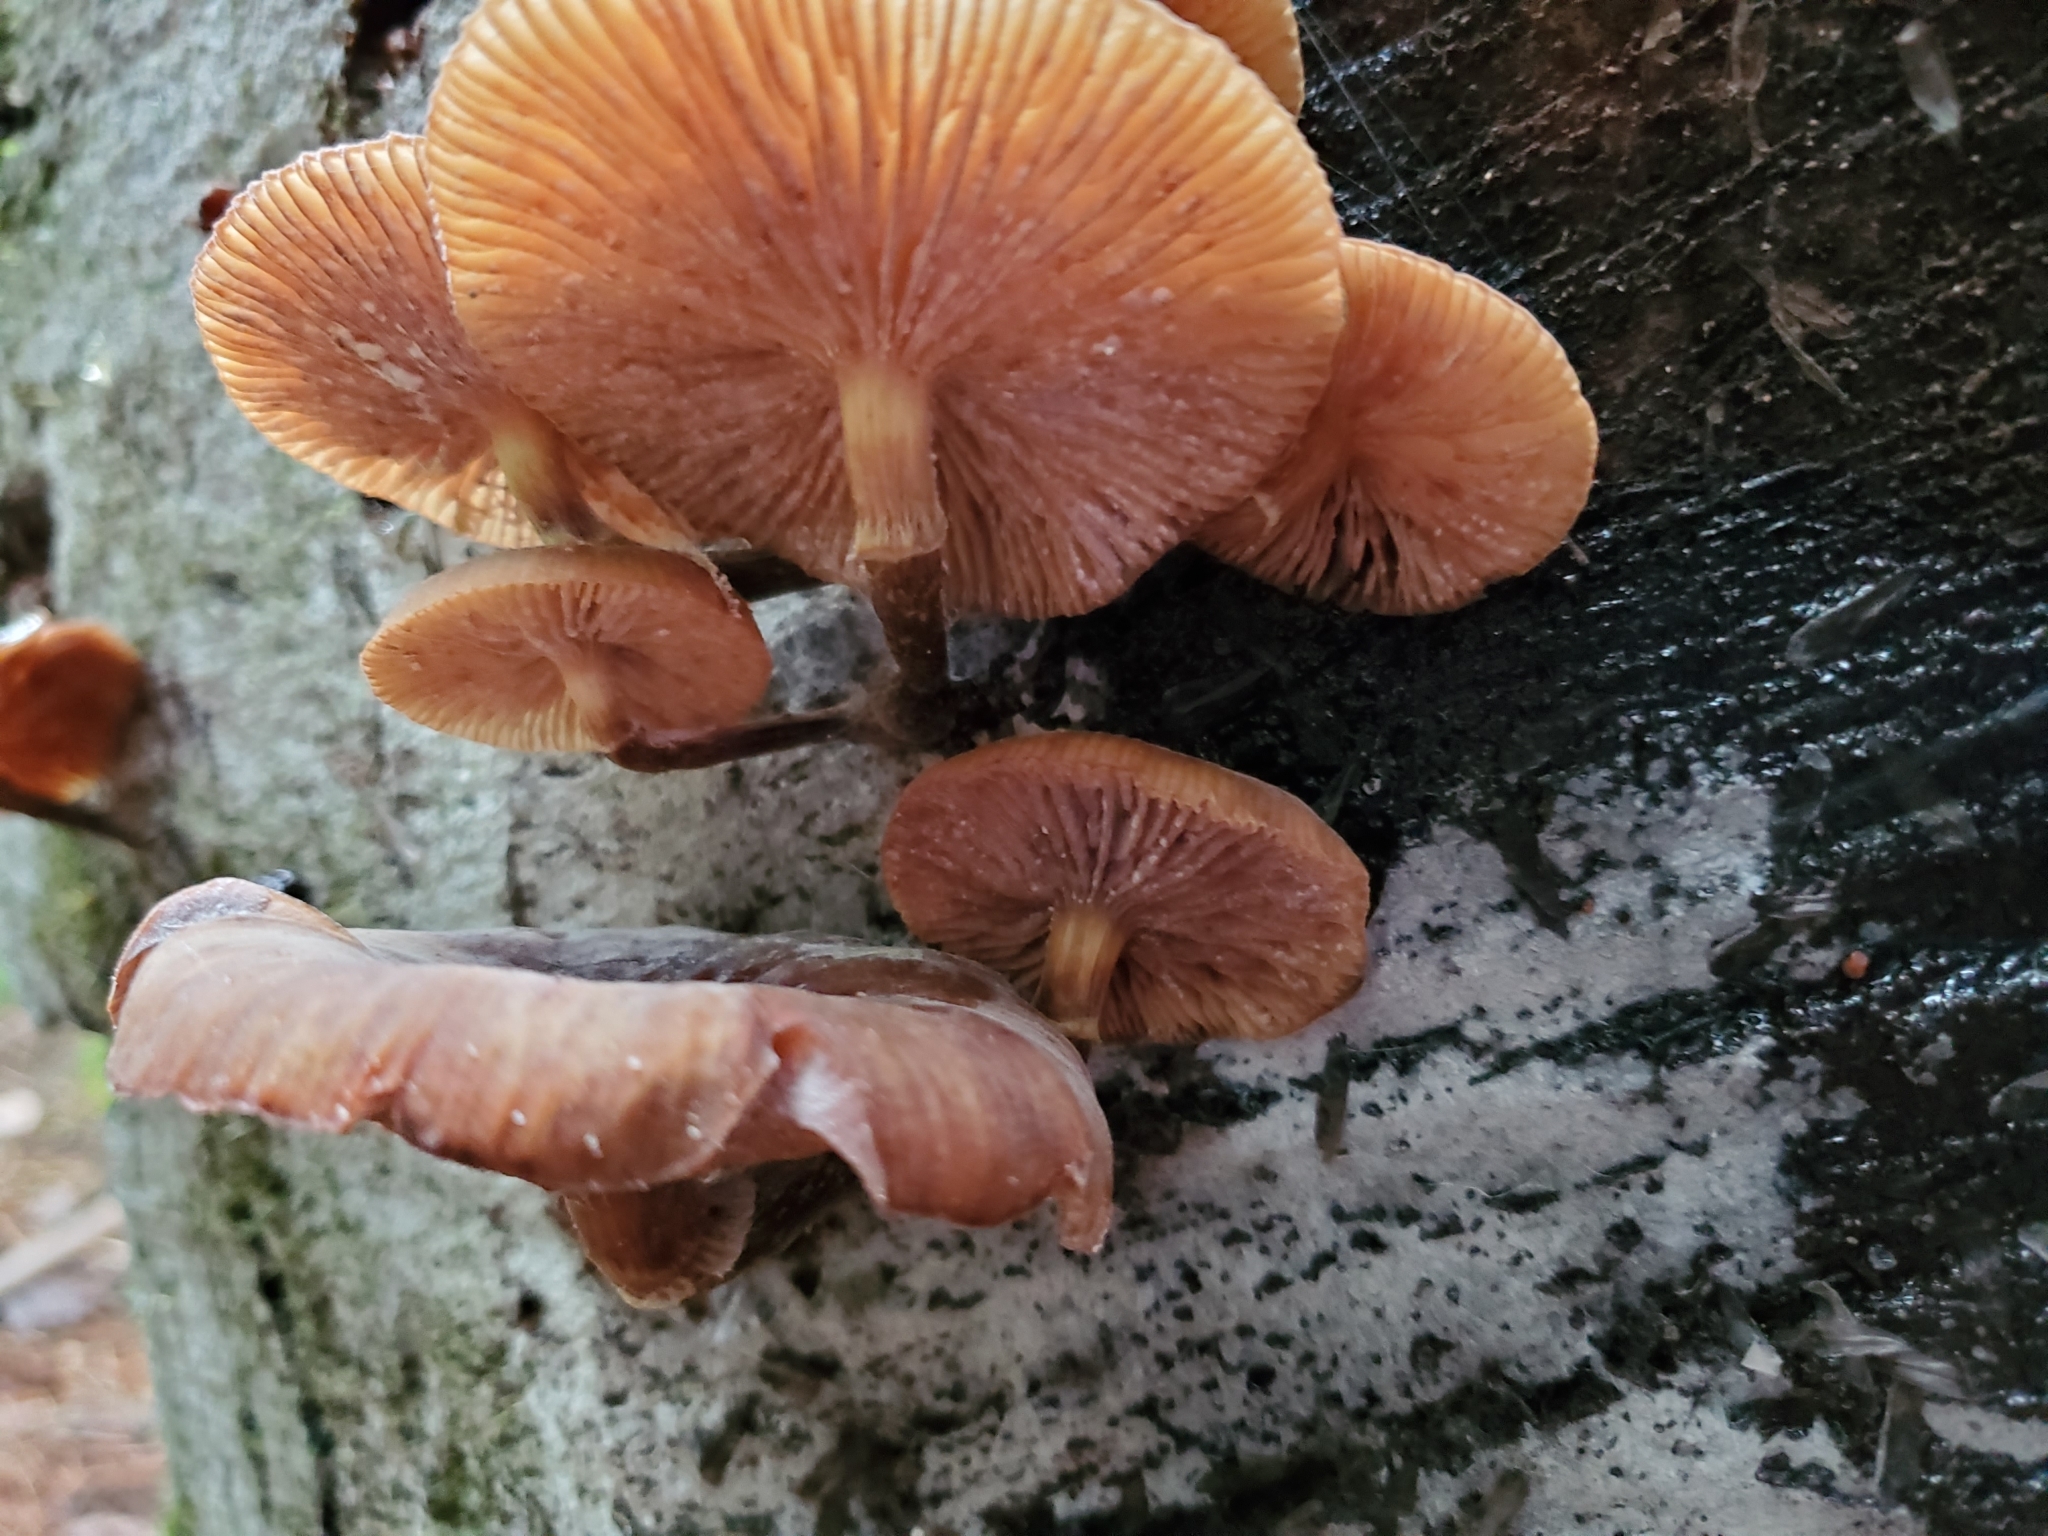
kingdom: Fungi
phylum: Basidiomycota
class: Agaricomycetes
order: Agaricales
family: Physalacriaceae
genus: Armillaria
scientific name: Armillaria novae-zelandiae
